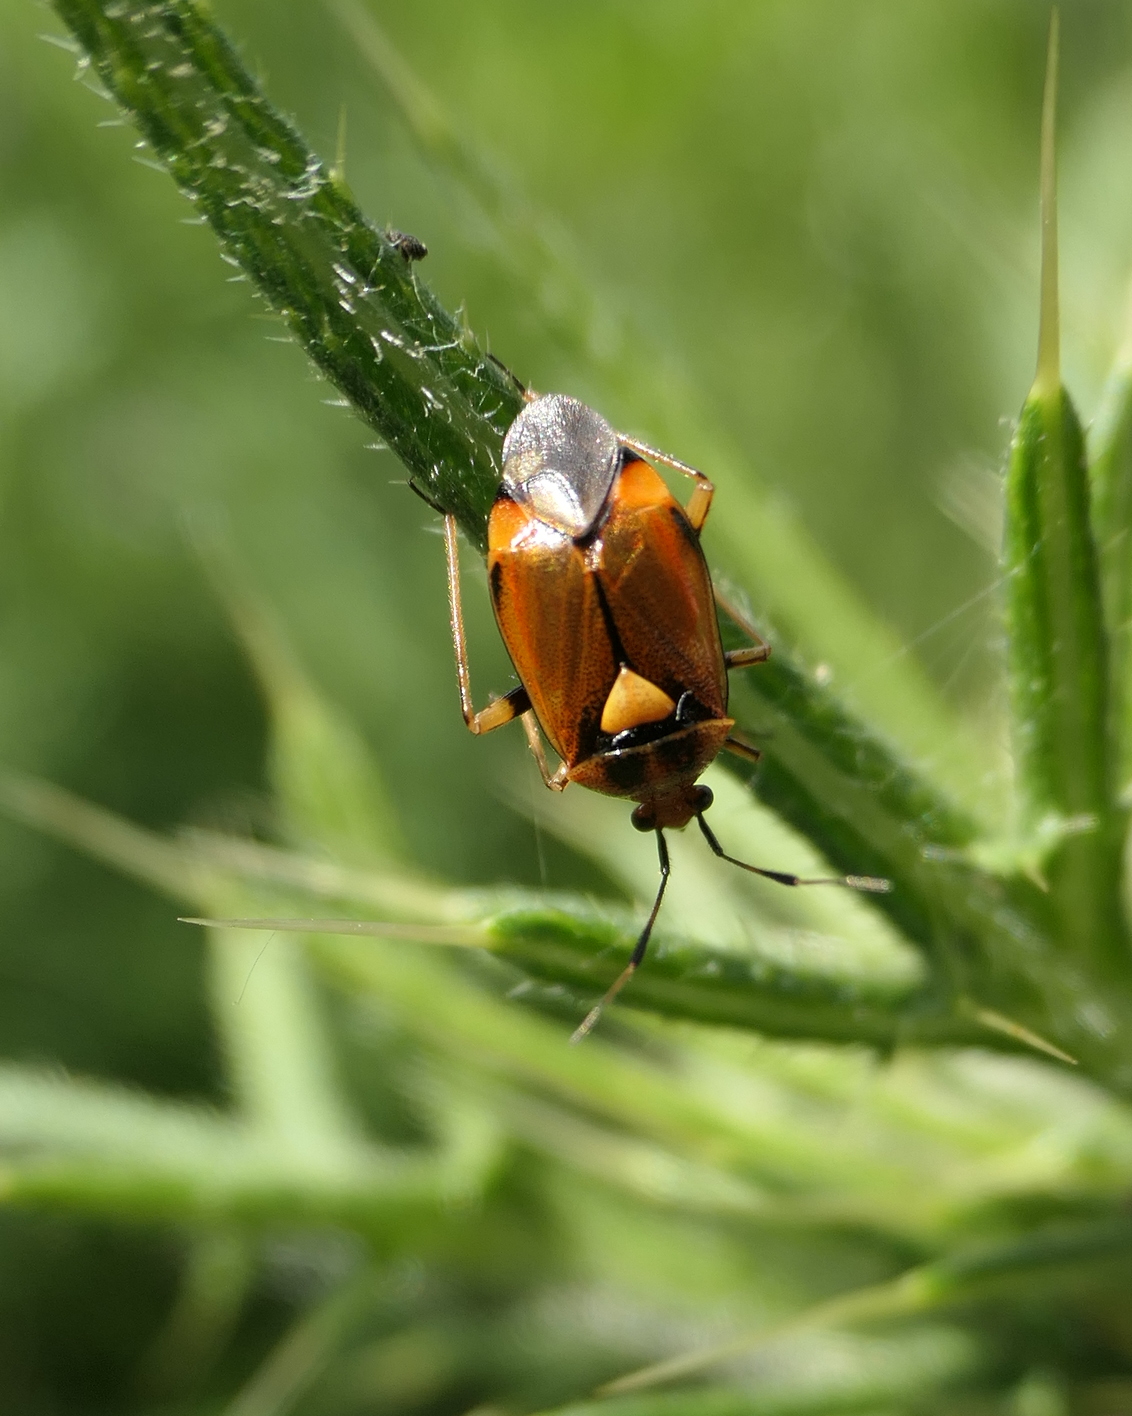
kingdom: Animalia
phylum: Arthropoda
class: Insecta
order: Hemiptera
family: Miridae
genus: Deraeocoris
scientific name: Deraeocoris ruber
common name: Plant bug
